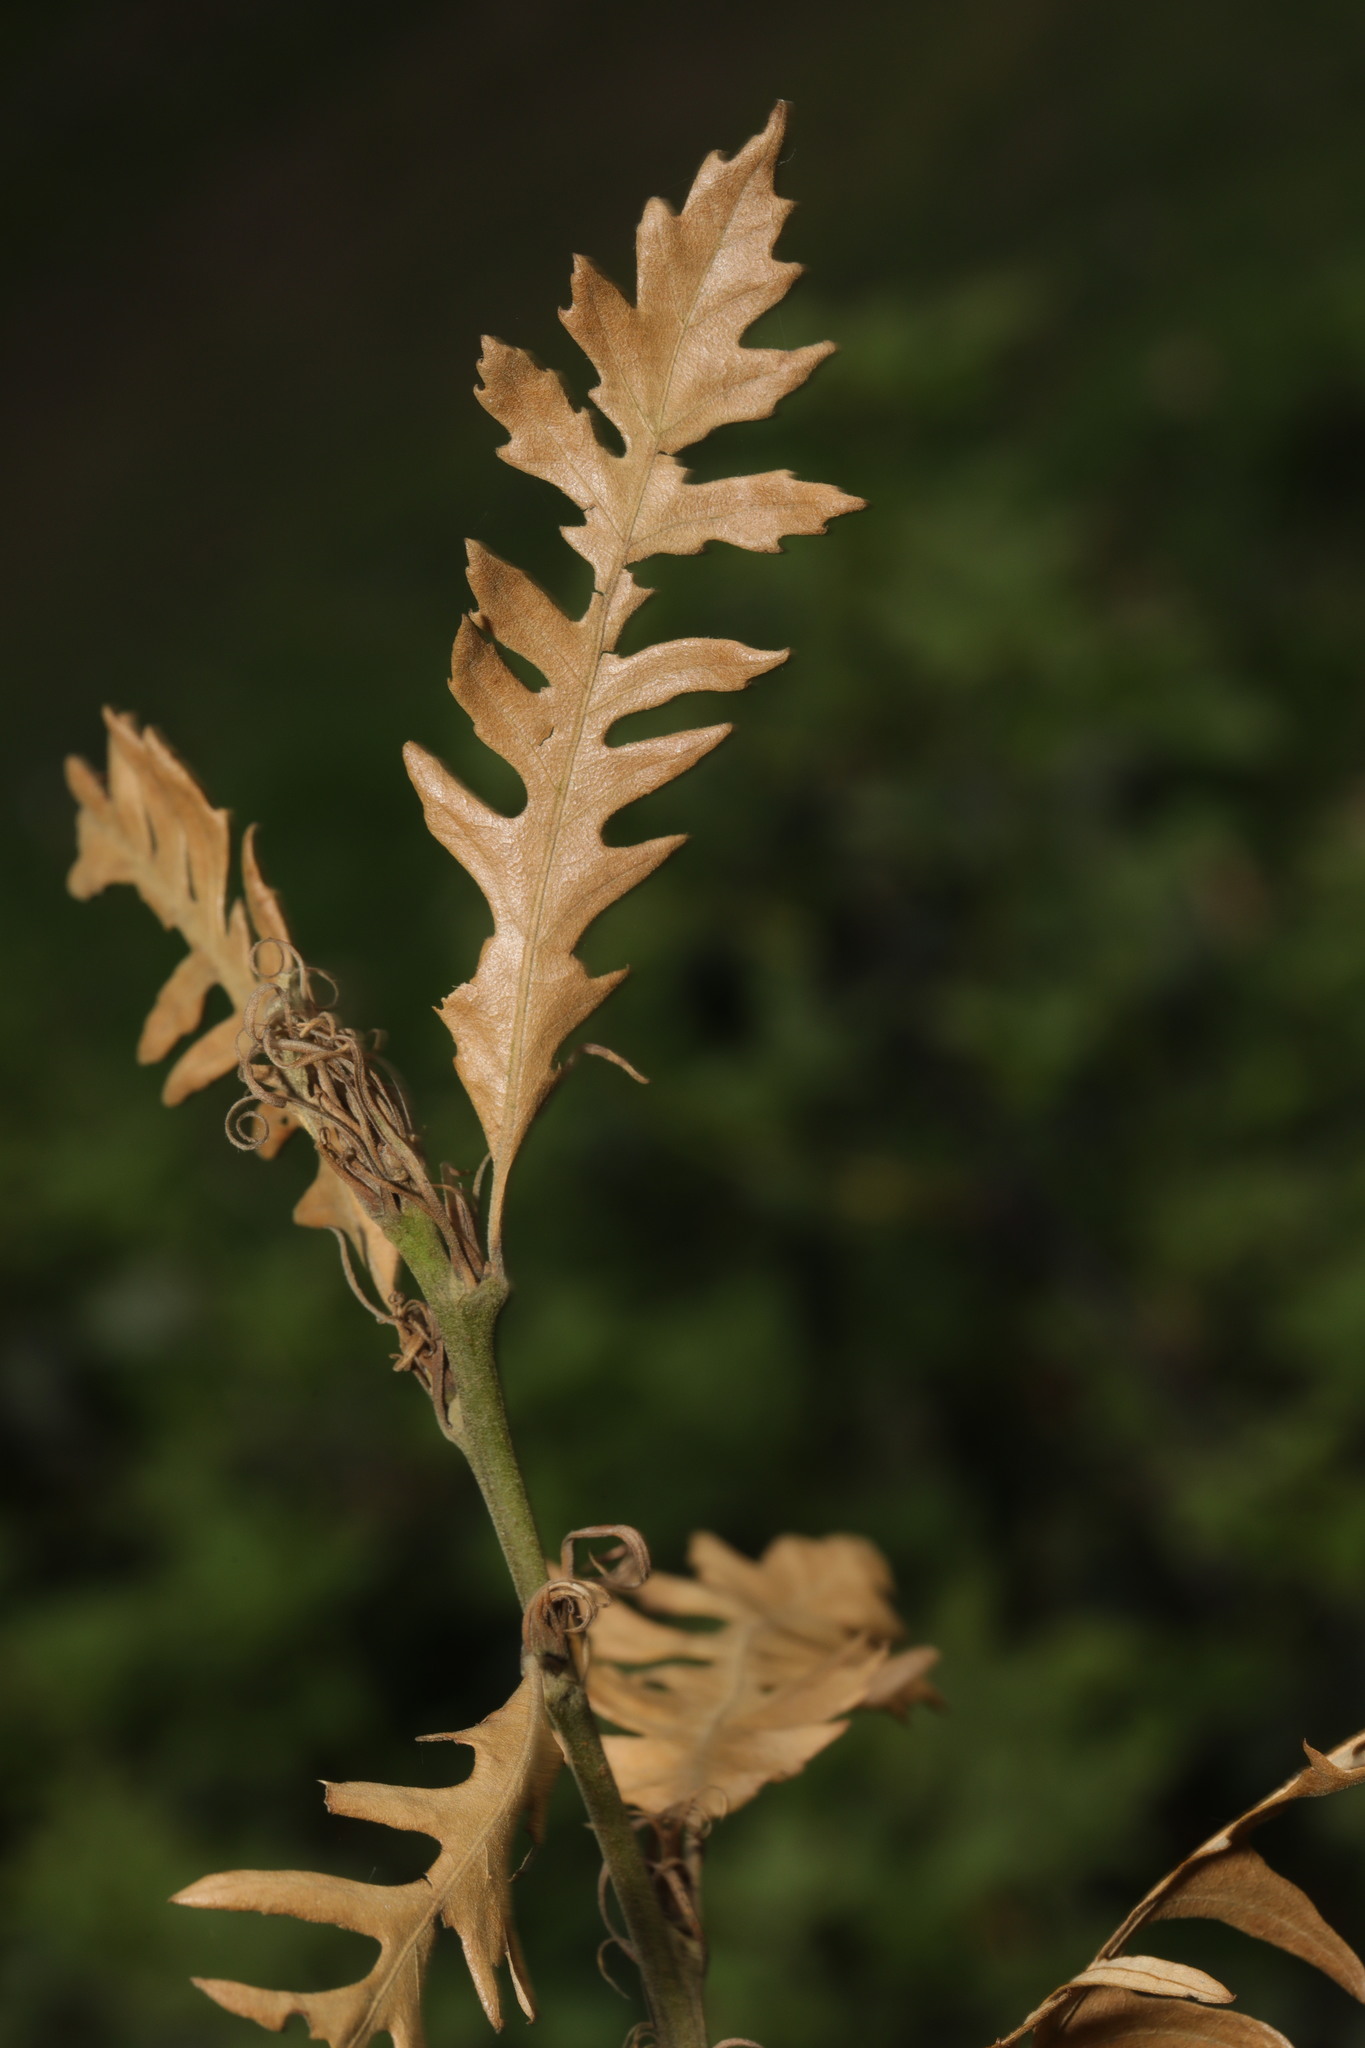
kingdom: Plantae
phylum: Tracheophyta
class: Magnoliopsida
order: Fagales
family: Fagaceae
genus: Quercus
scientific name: Quercus cerris
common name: Turkey oak
